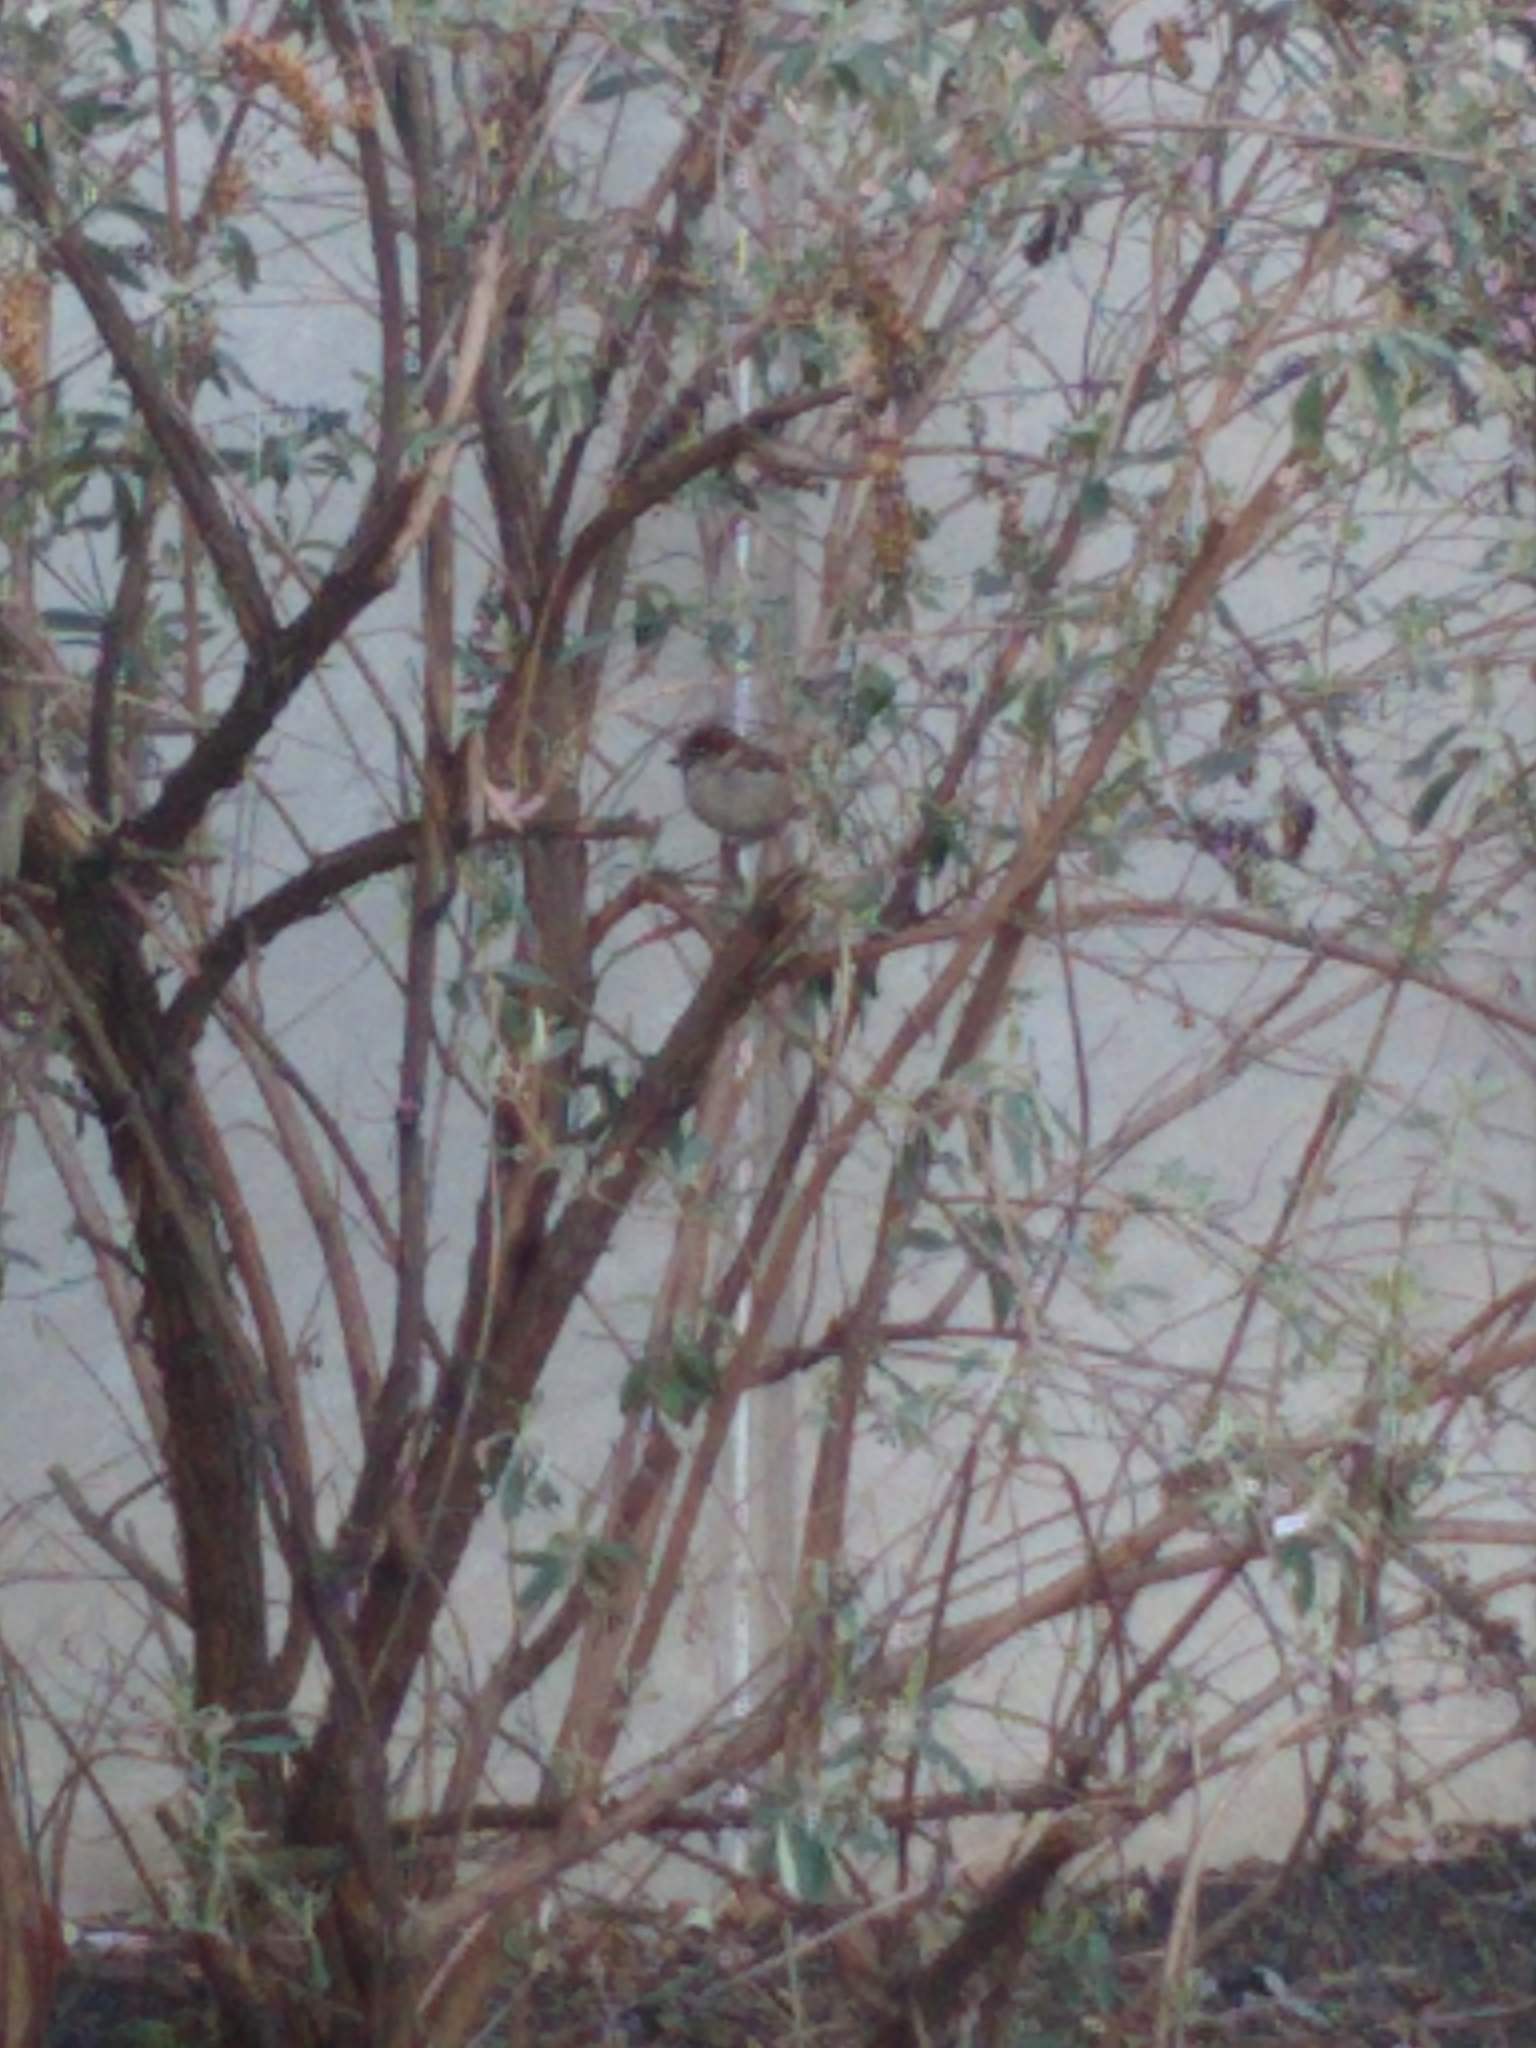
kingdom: Animalia
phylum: Chordata
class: Aves
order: Passeriformes
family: Passeridae
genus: Passer
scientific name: Passer domesticus
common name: House sparrow
